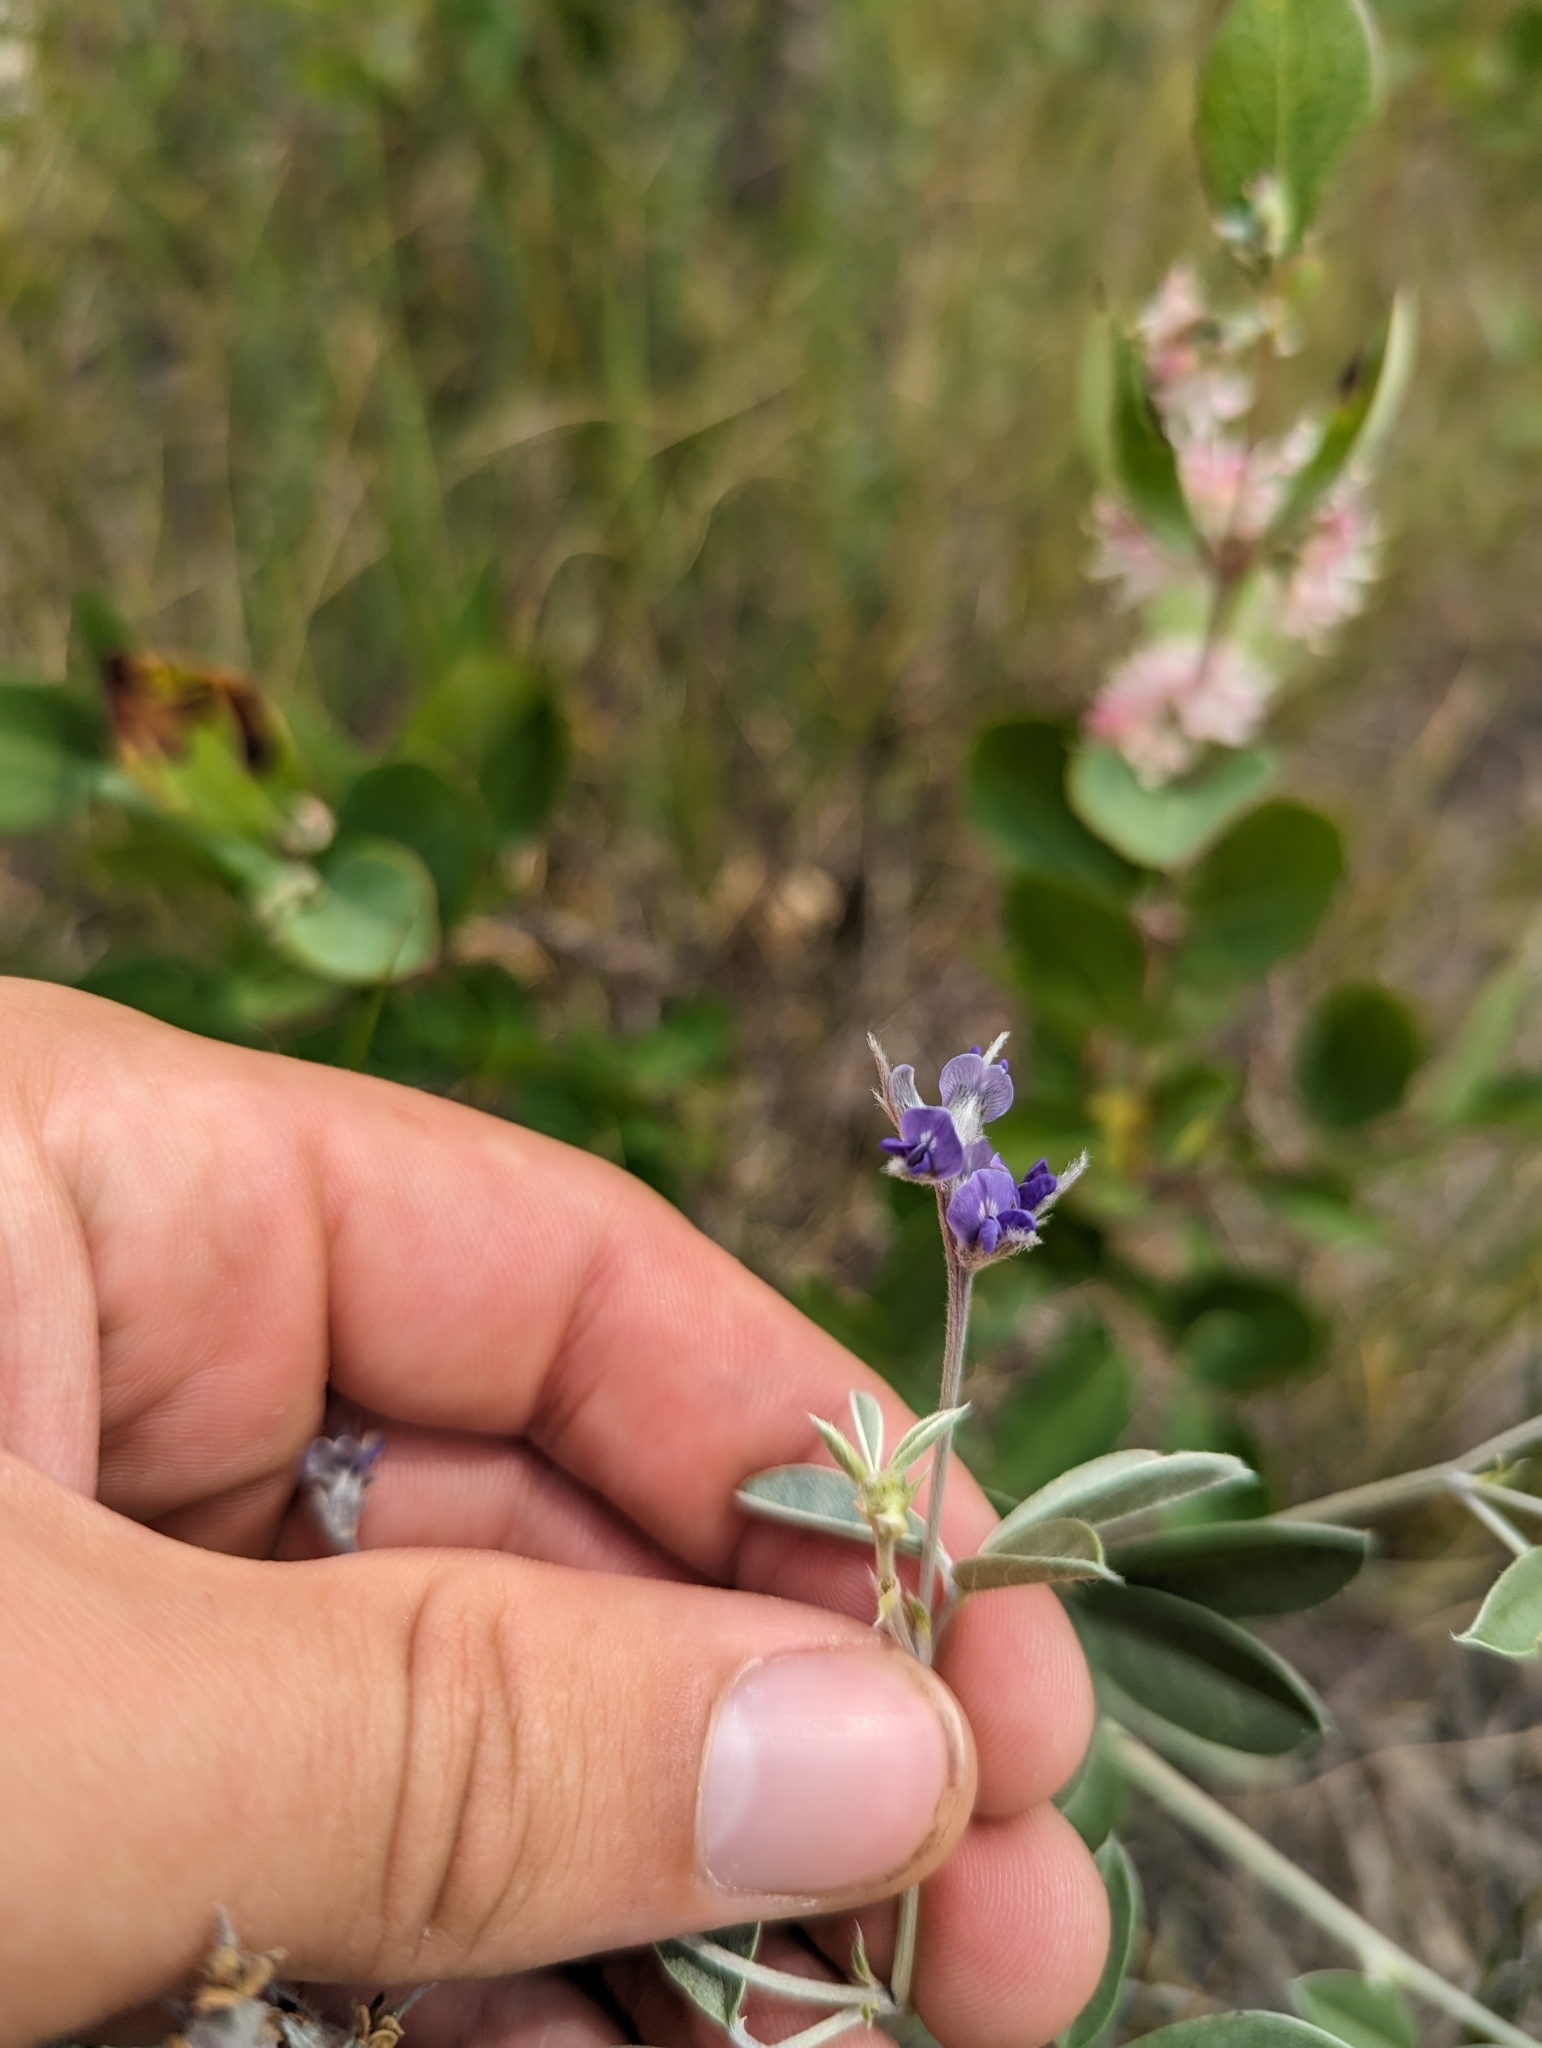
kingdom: Plantae
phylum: Tracheophyta
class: Magnoliopsida
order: Fabales
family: Fabaceae
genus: Pediomelum
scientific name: Pediomelum argophyllum
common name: Silver-leaved indian breadroot
